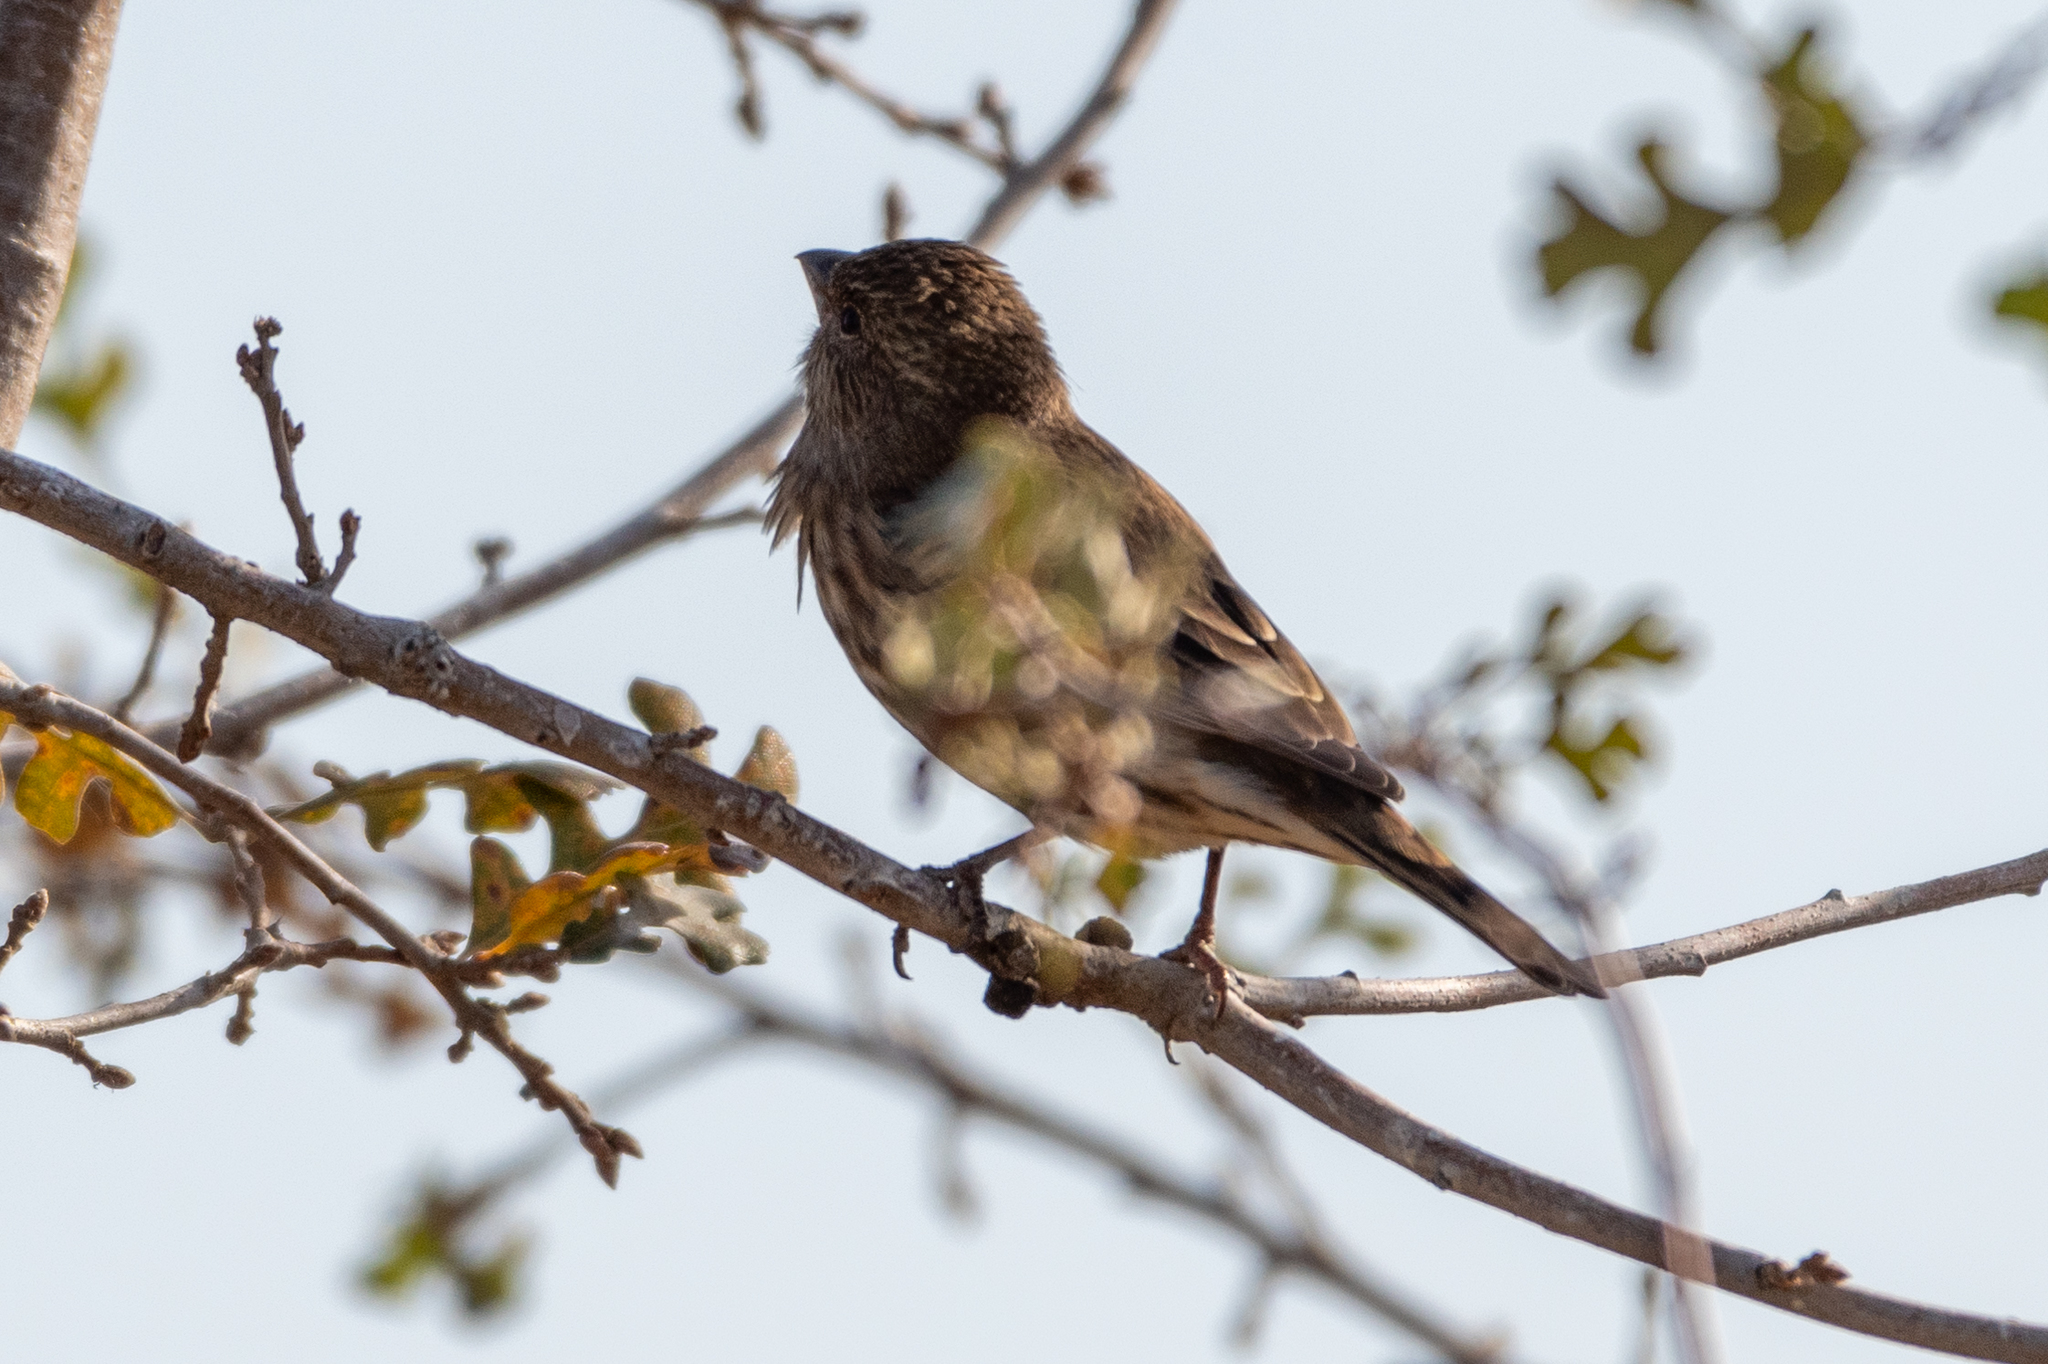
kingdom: Animalia
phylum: Chordata
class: Aves
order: Passeriformes
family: Fringillidae
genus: Haemorhous
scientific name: Haemorhous mexicanus
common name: House finch
